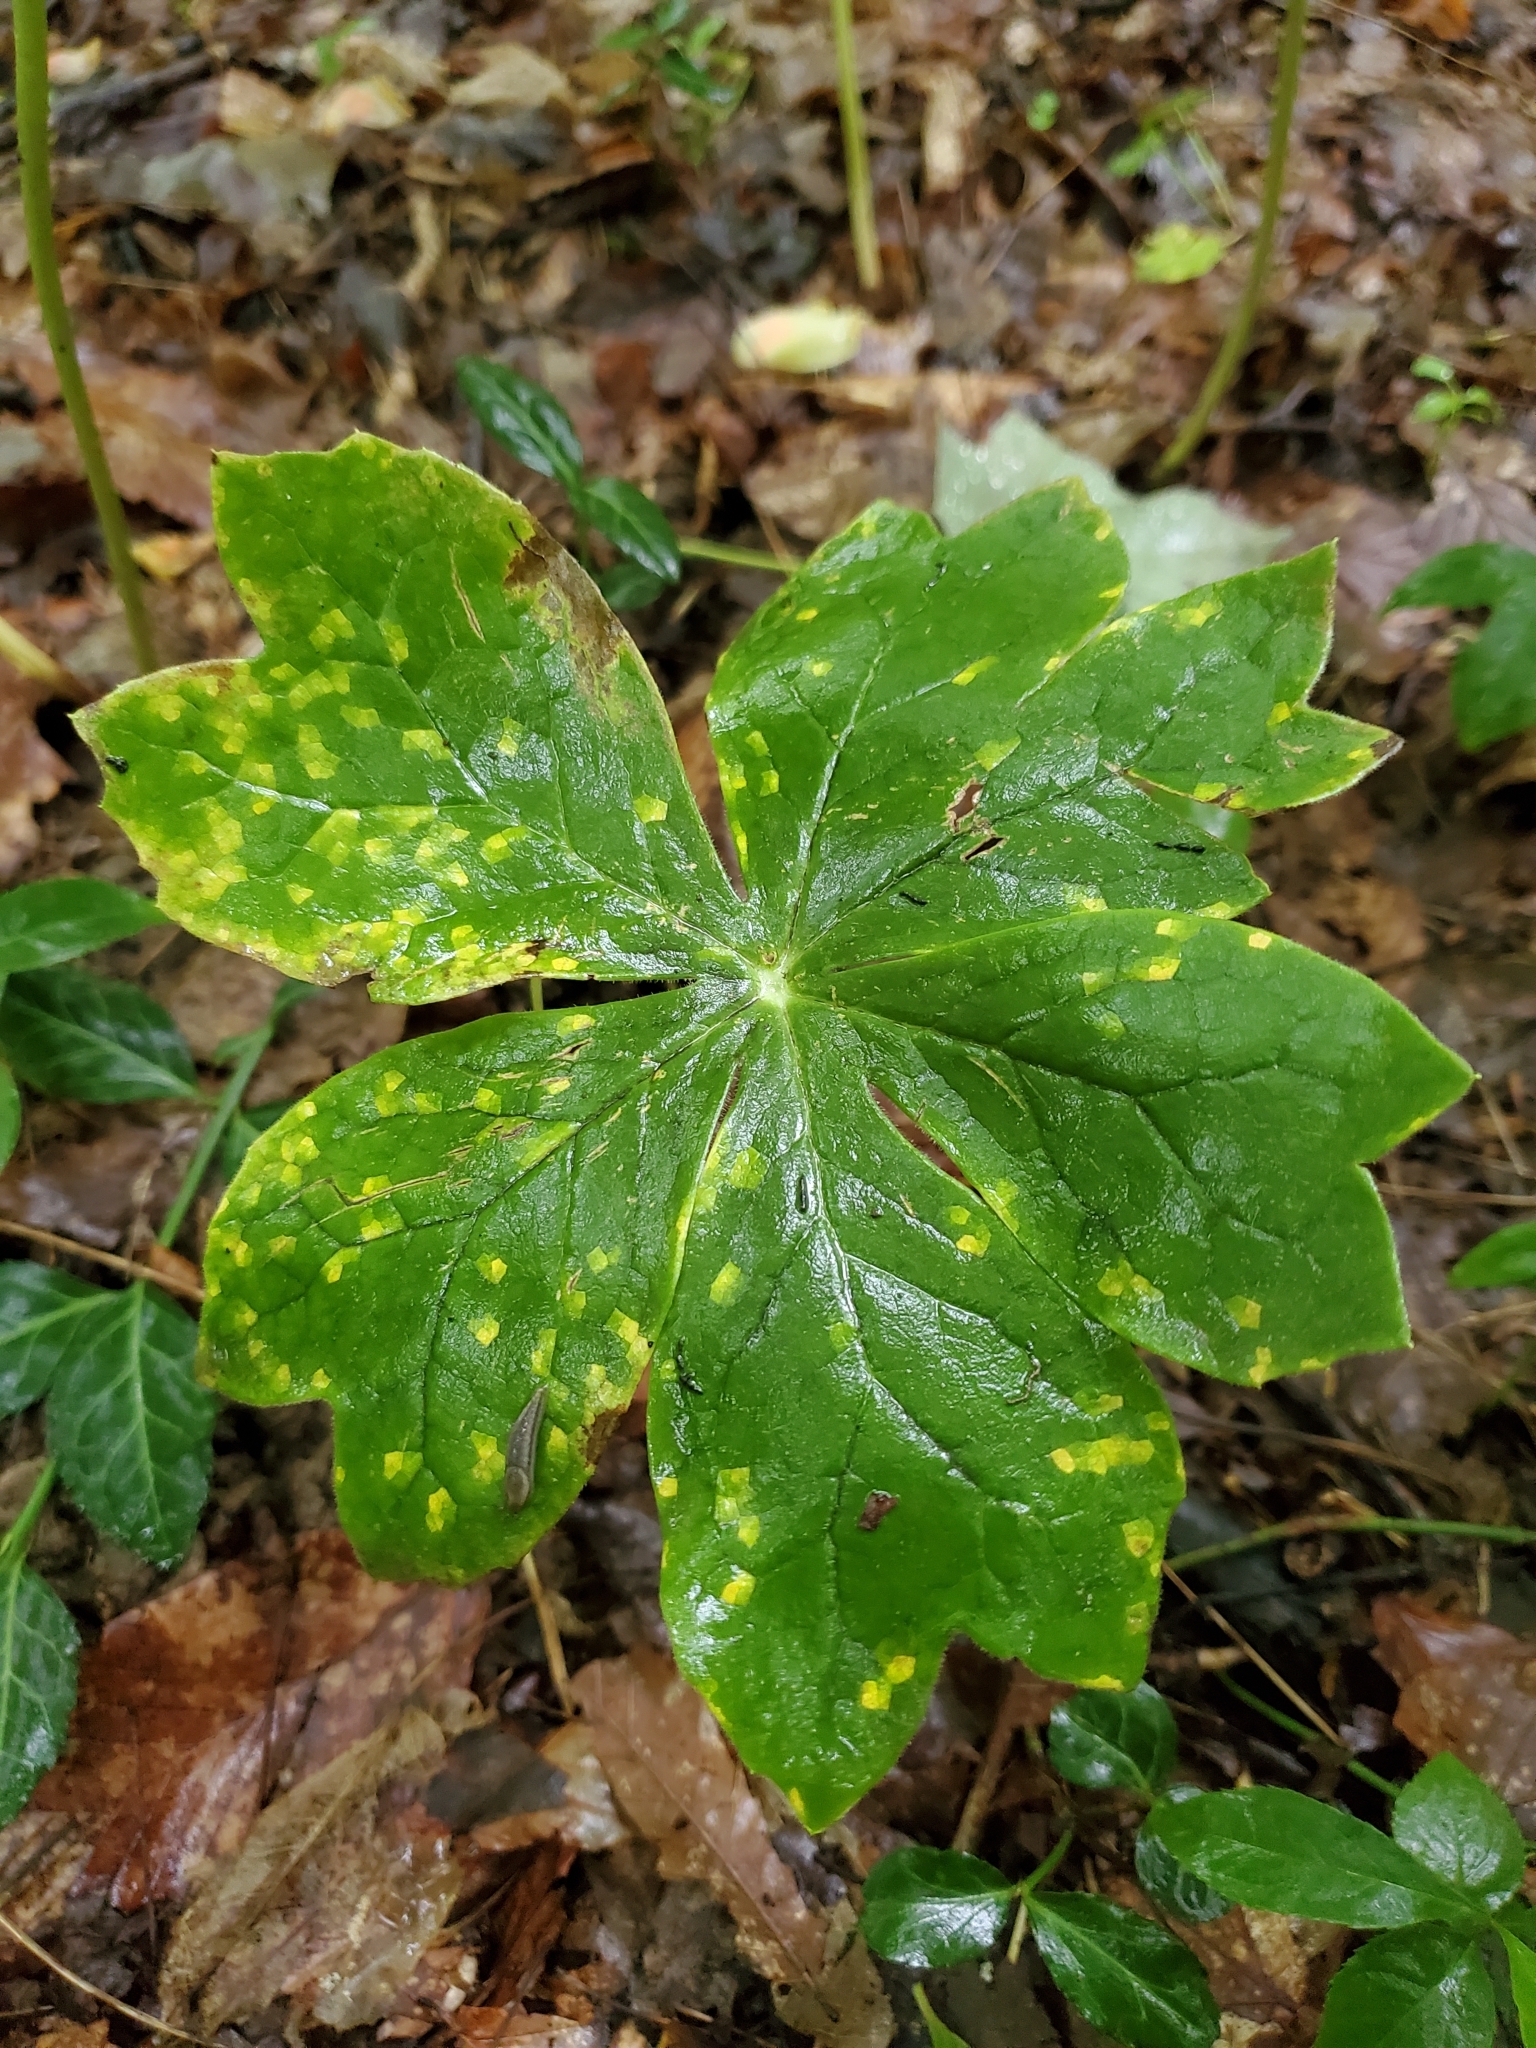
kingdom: Fungi
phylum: Basidiomycota
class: Pucciniomycetes
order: Pucciniales
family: Pucciniaceae
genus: Puccinia
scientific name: Puccinia podophylli
